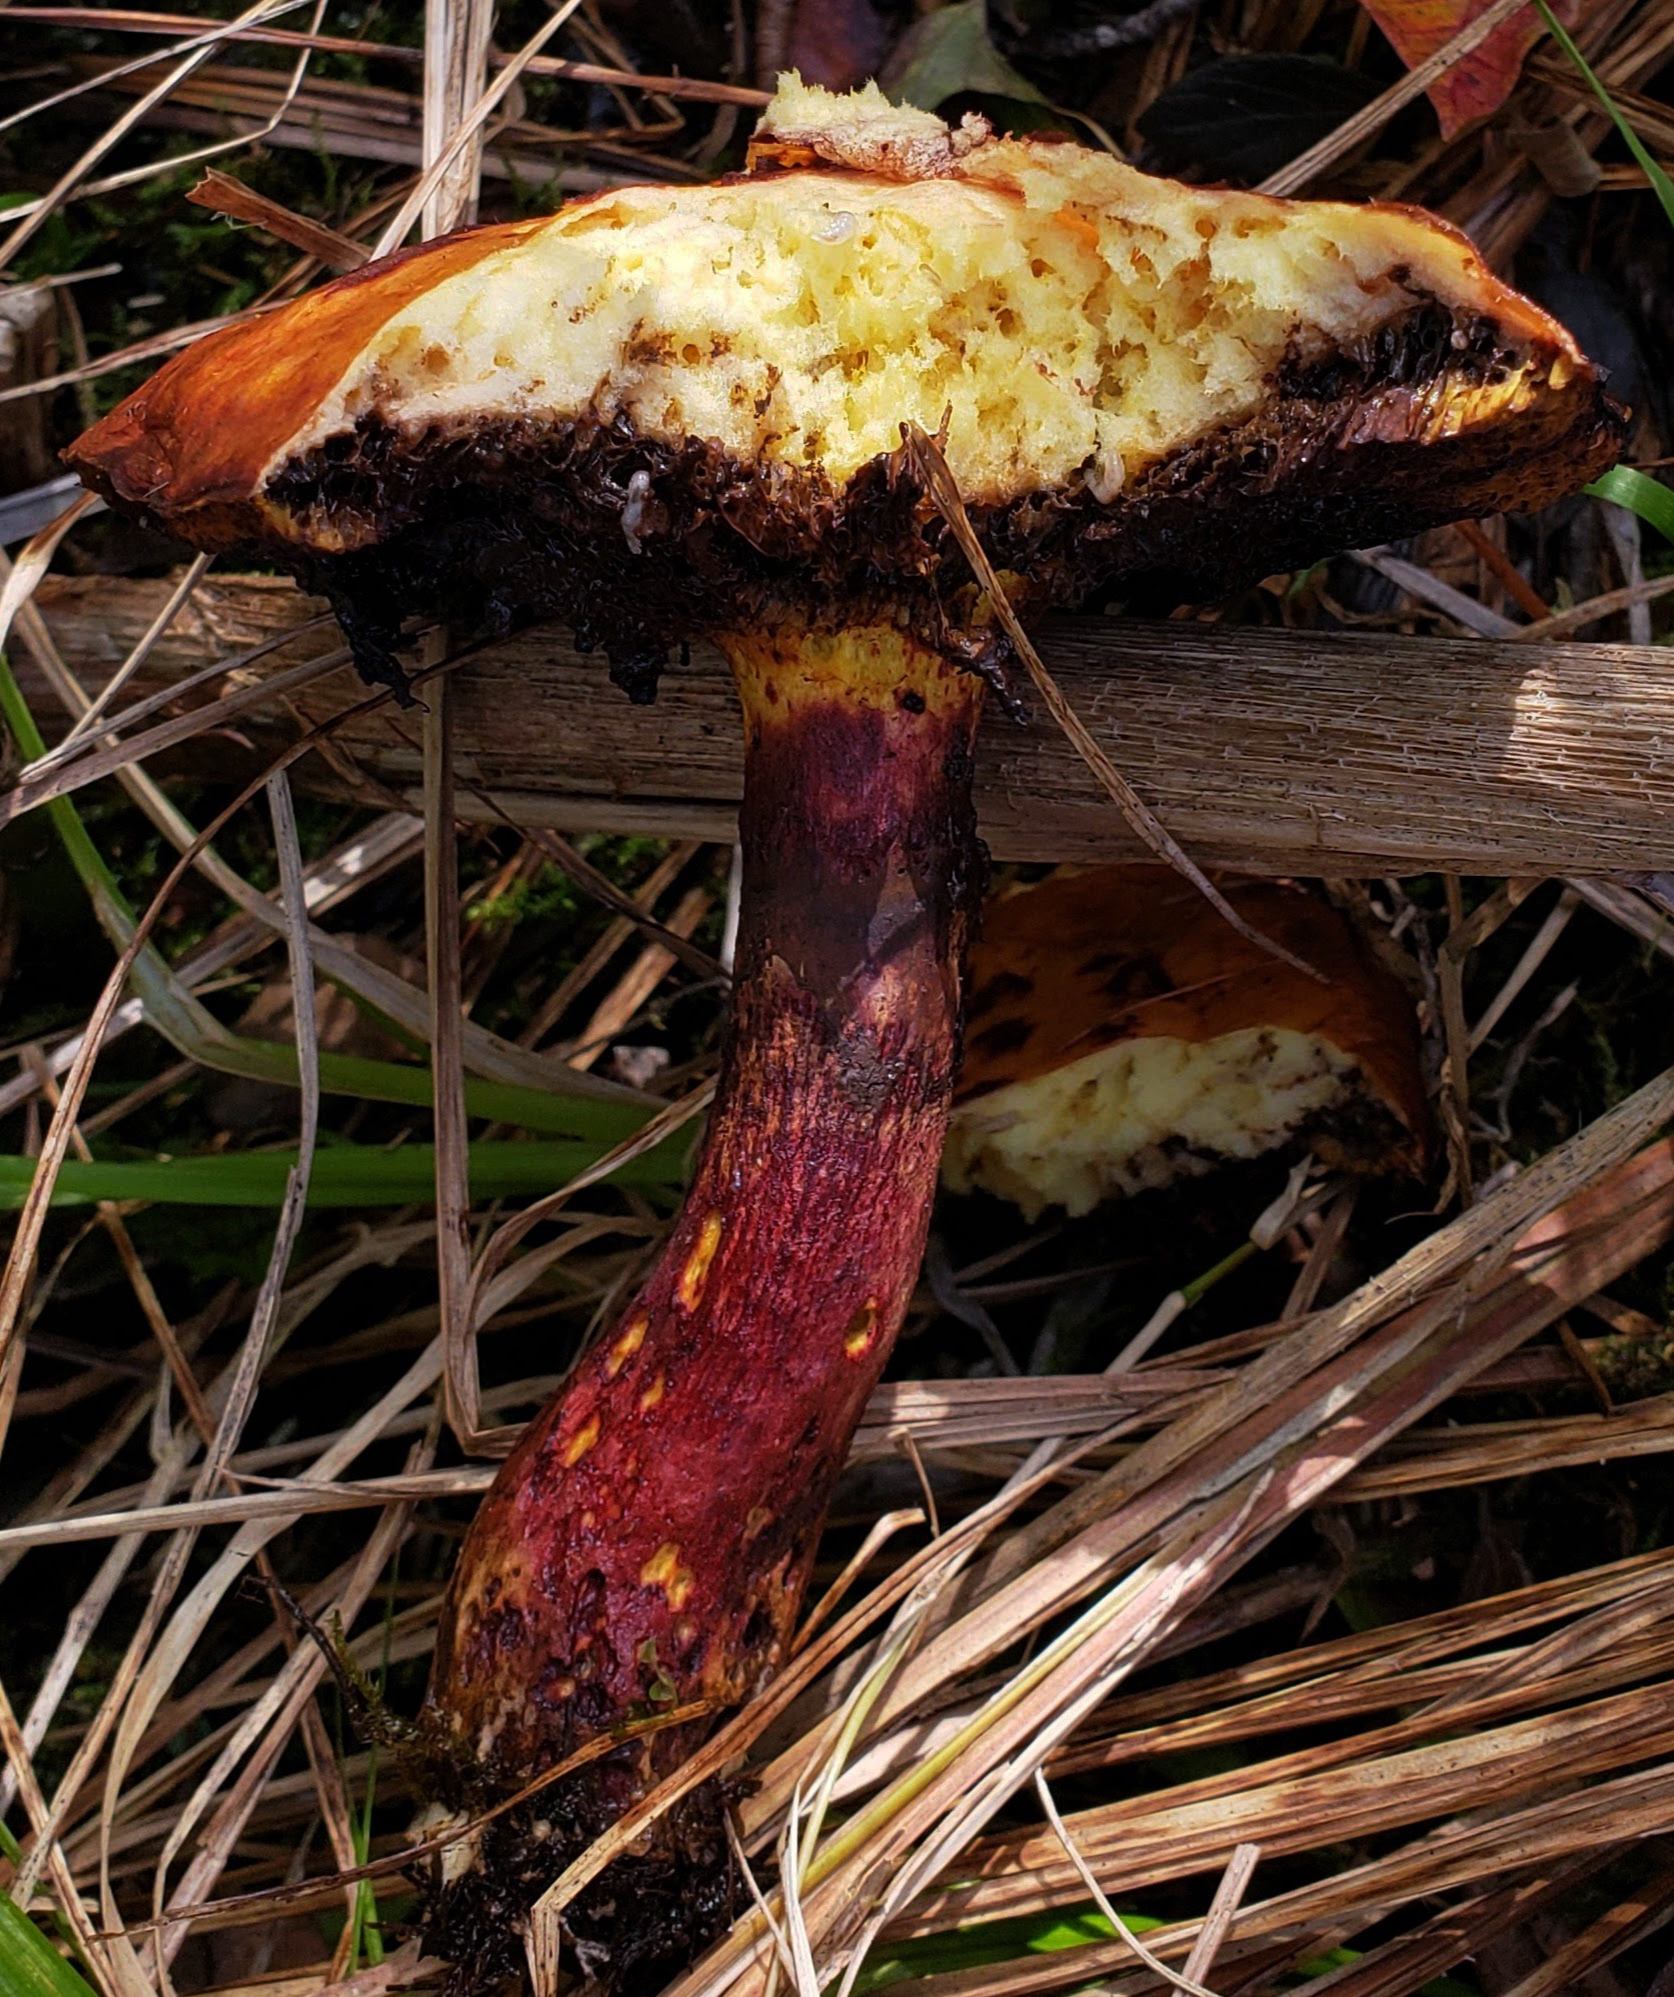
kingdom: Fungi
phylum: Basidiomycota
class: Agaricomycetes
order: Boletales
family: Suillaceae
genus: Boletinus
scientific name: Boletinus spectabilis
